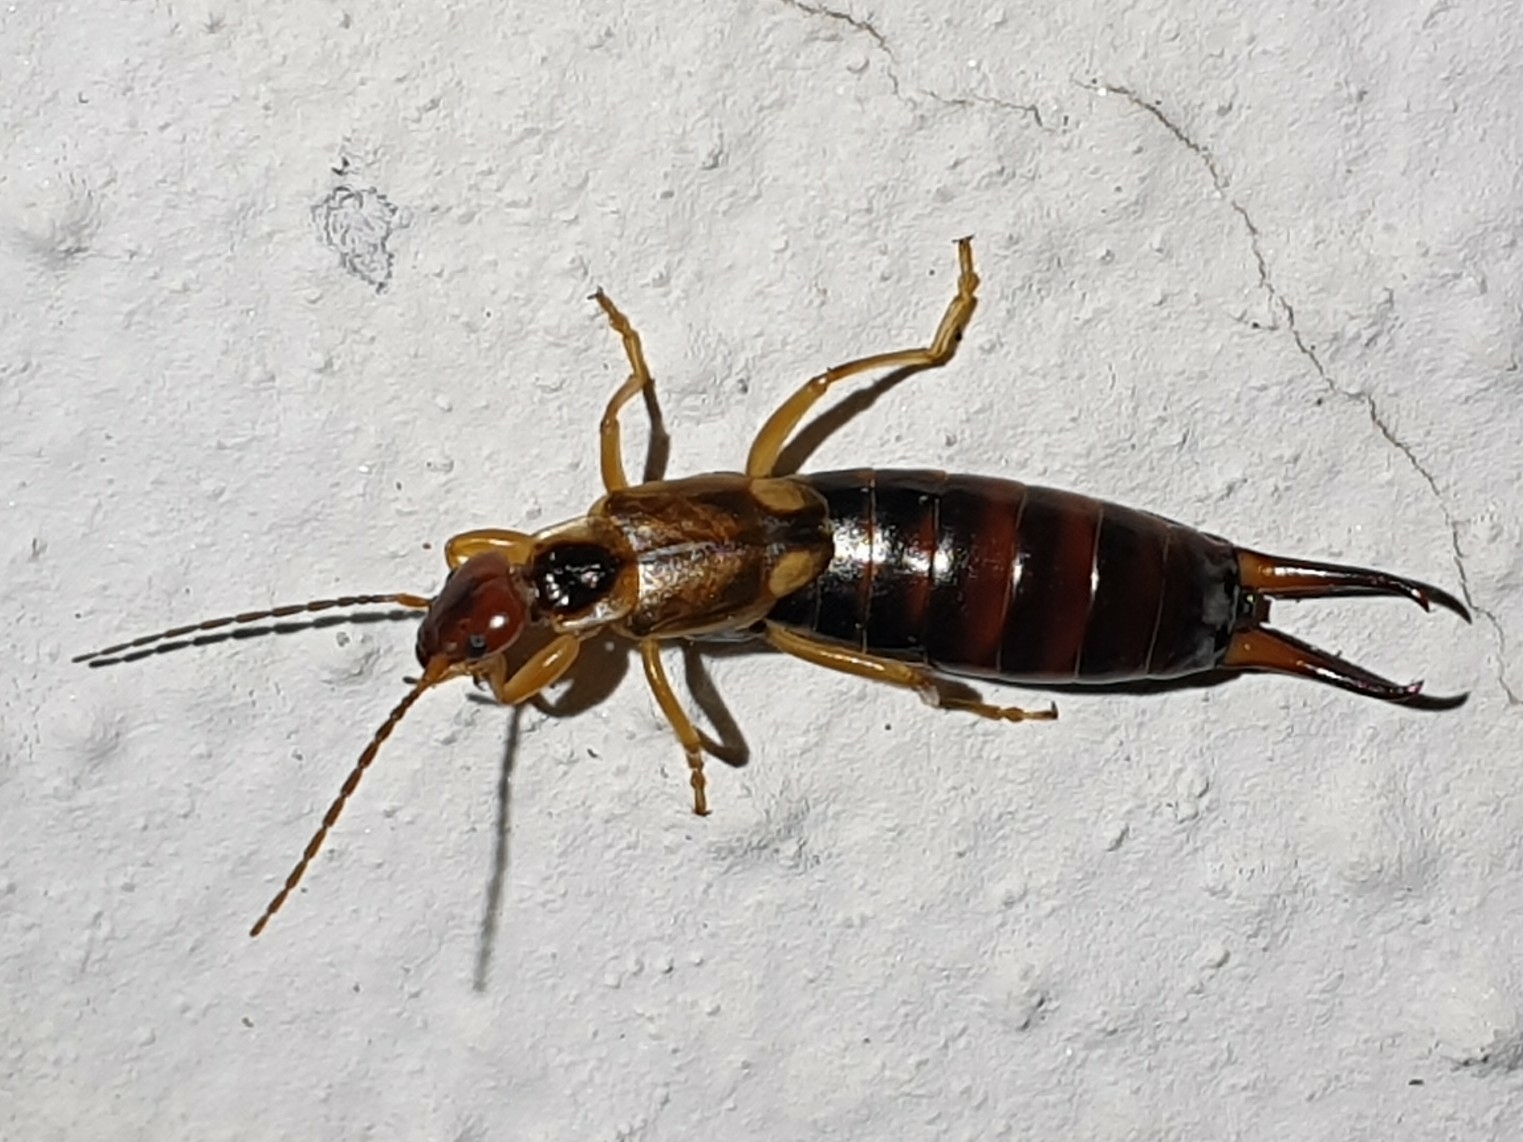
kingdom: Animalia
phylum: Arthropoda
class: Insecta
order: Dermaptera
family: Forficulidae
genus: Forficula
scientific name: Forficula auricularia
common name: European earwig
